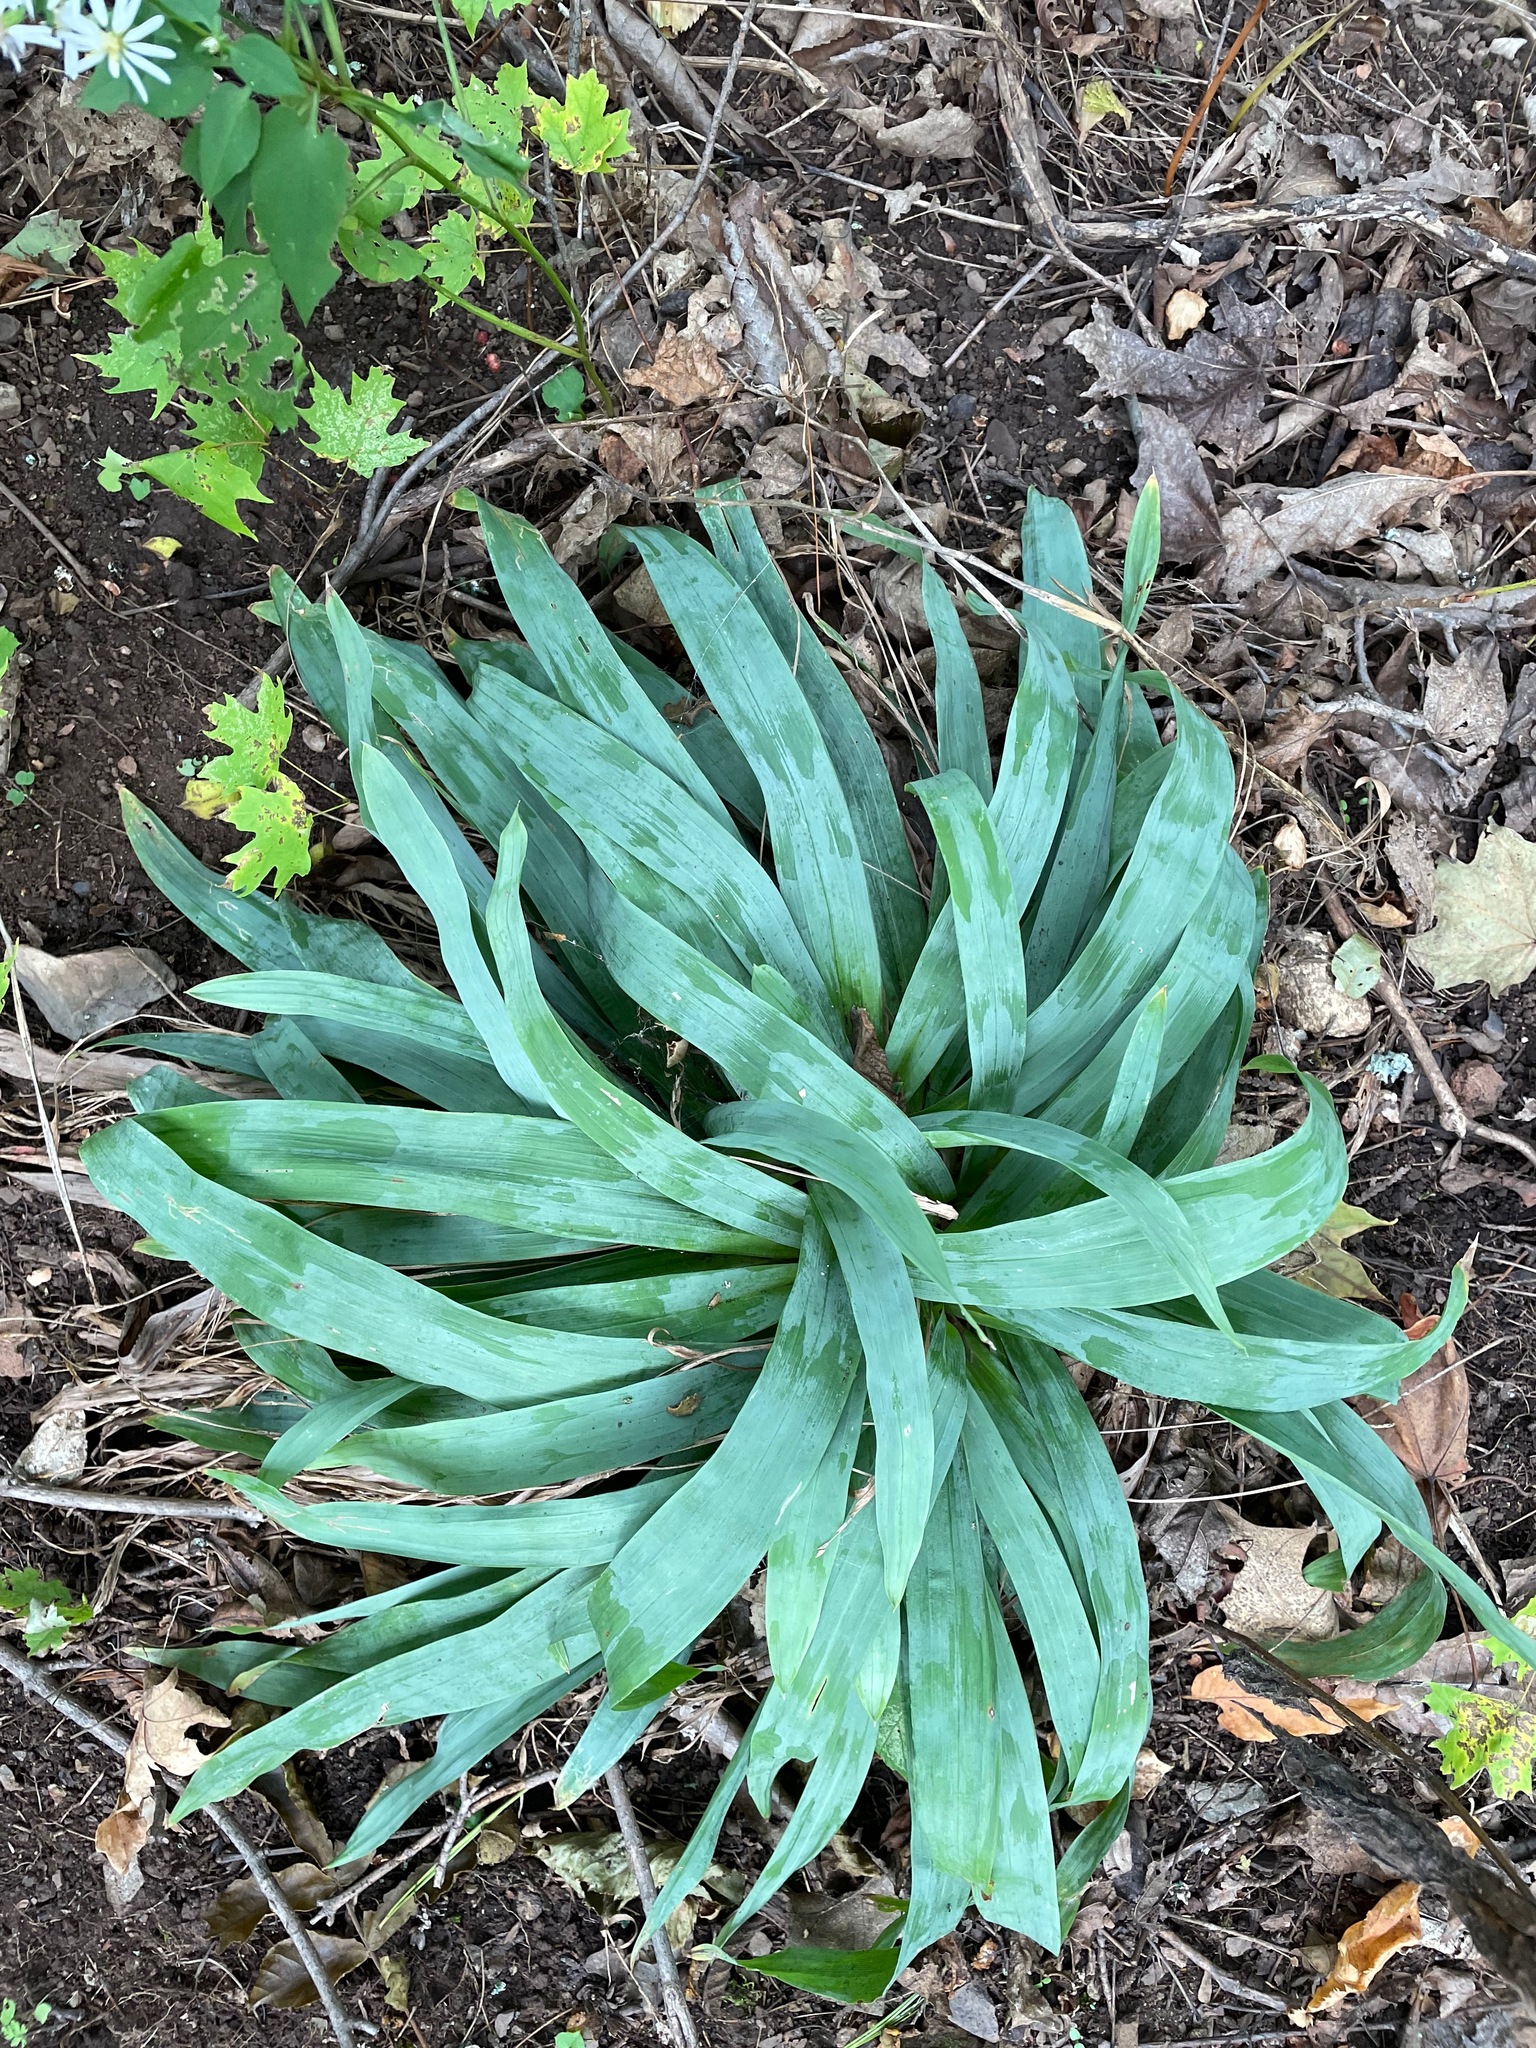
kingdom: Plantae
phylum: Tracheophyta
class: Liliopsida
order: Poales
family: Cyperaceae
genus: Carex
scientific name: Carex platyphylla
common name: Broad-leaved sedge
